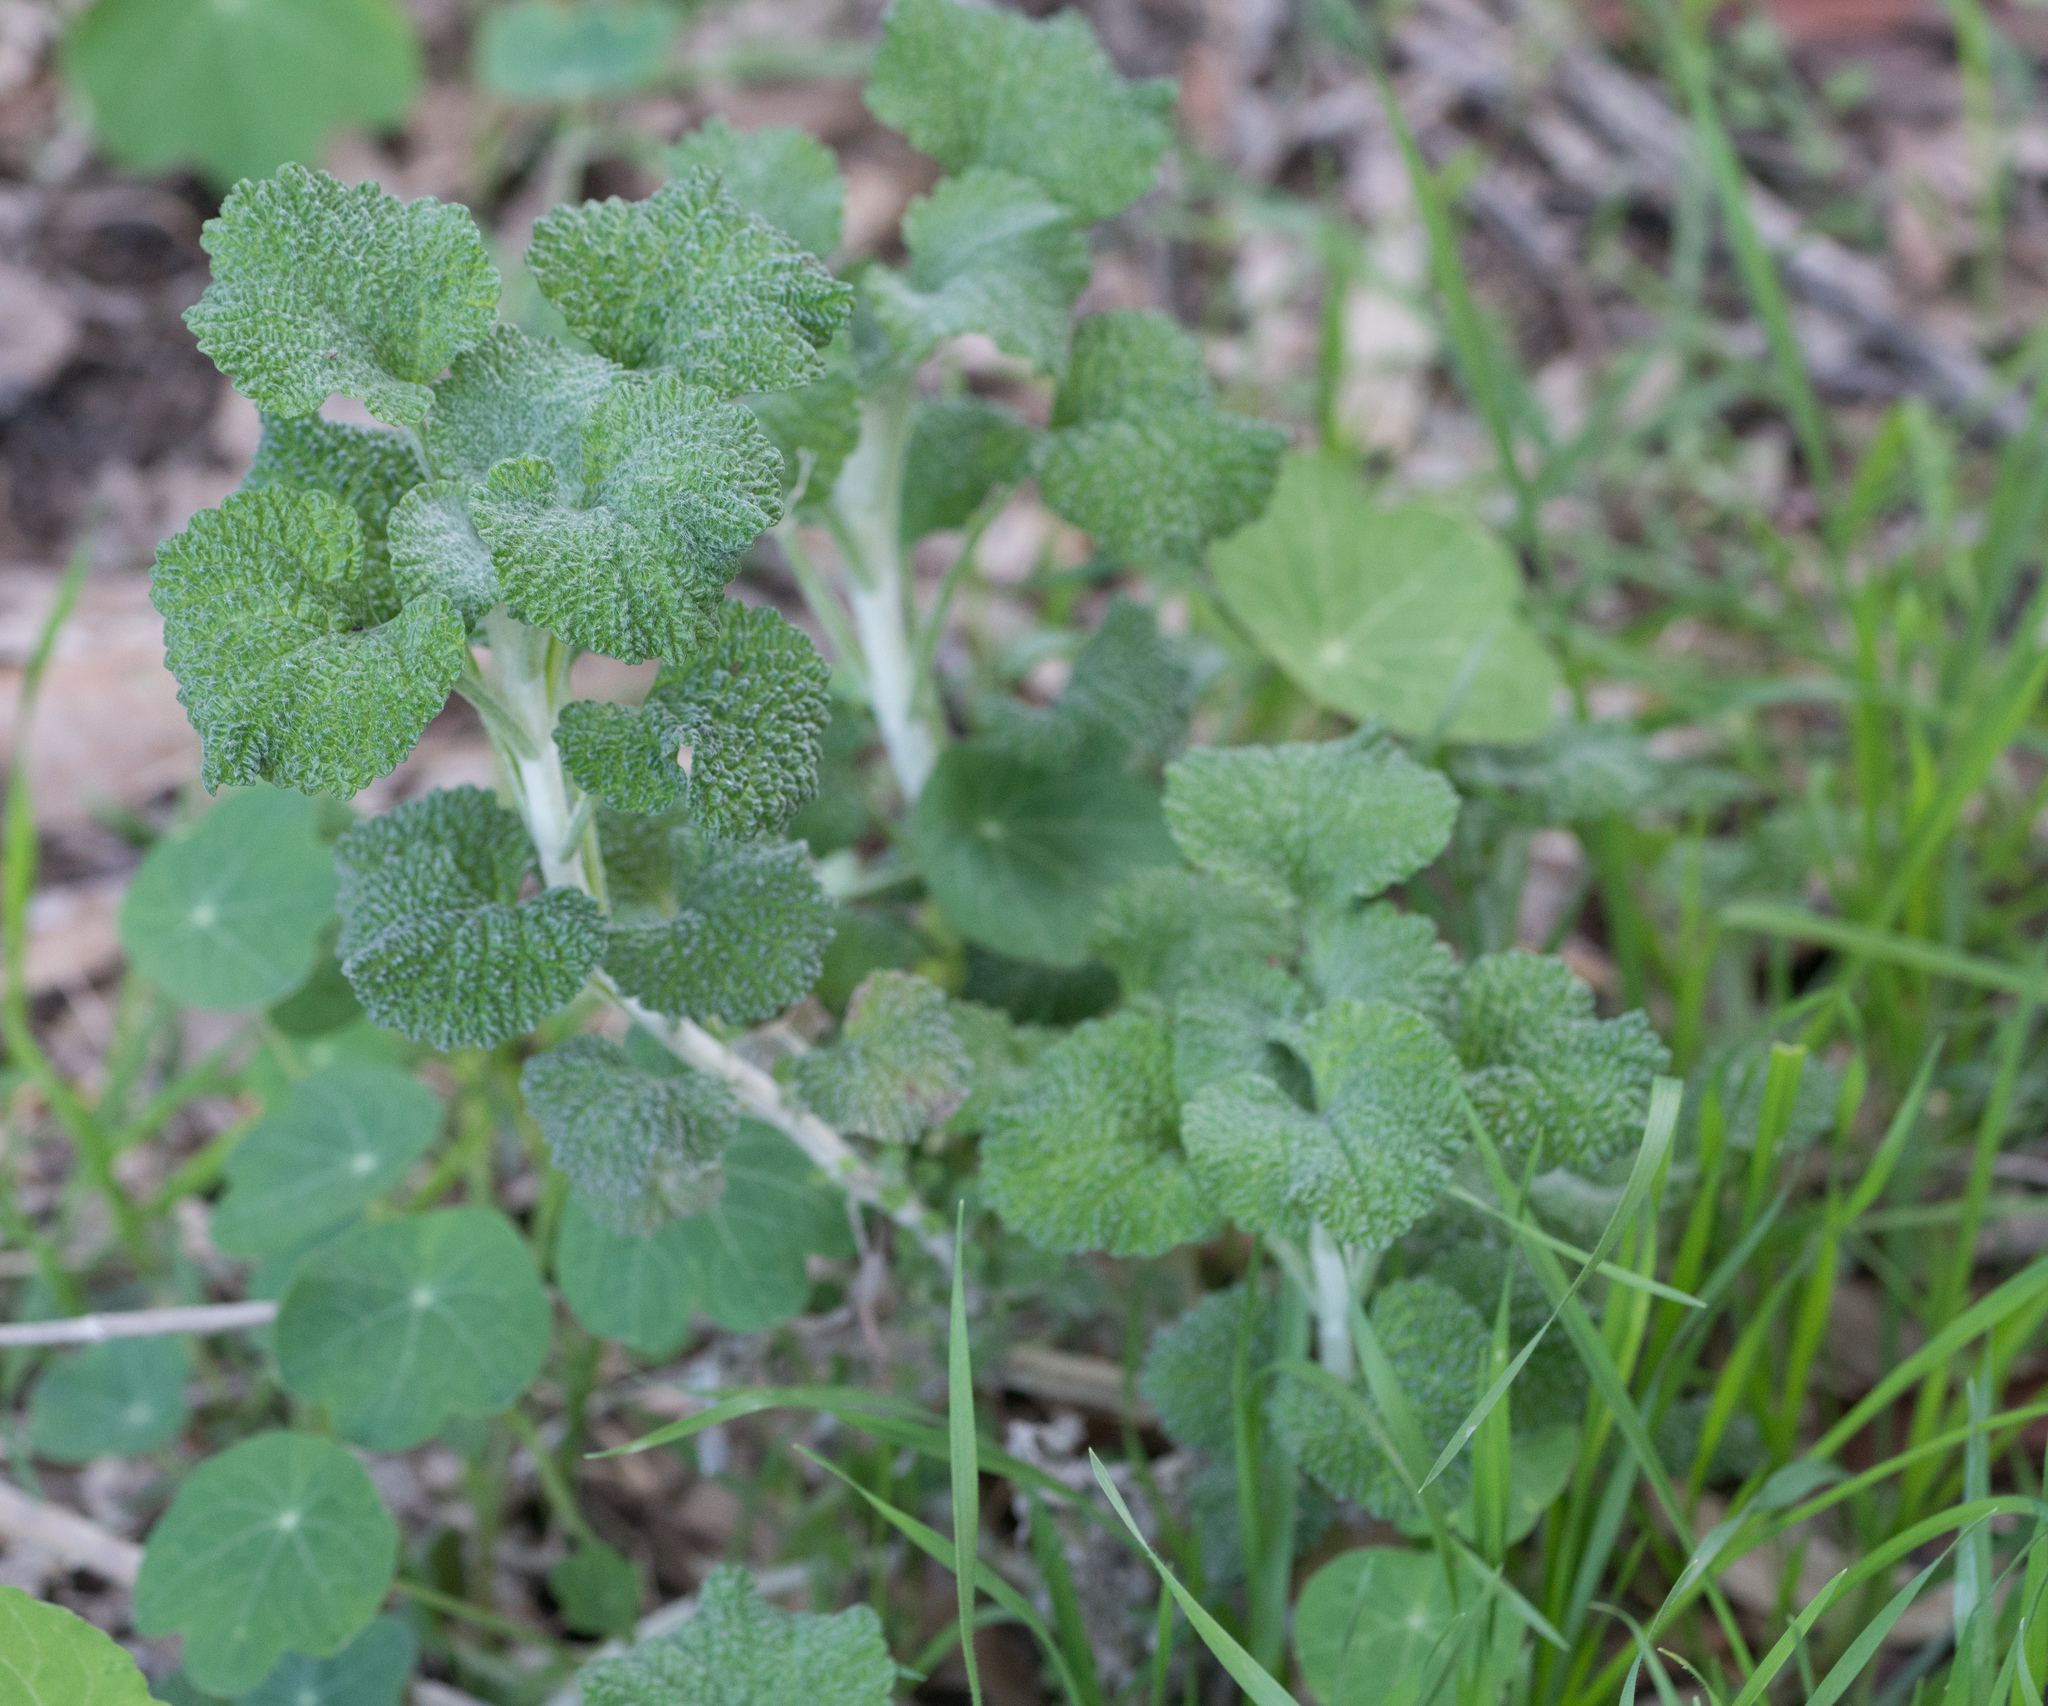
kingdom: Plantae
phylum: Tracheophyta
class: Magnoliopsida
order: Lamiales
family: Lamiaceae
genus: Marrubium
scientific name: Marrubium vulgare
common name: Horehound
